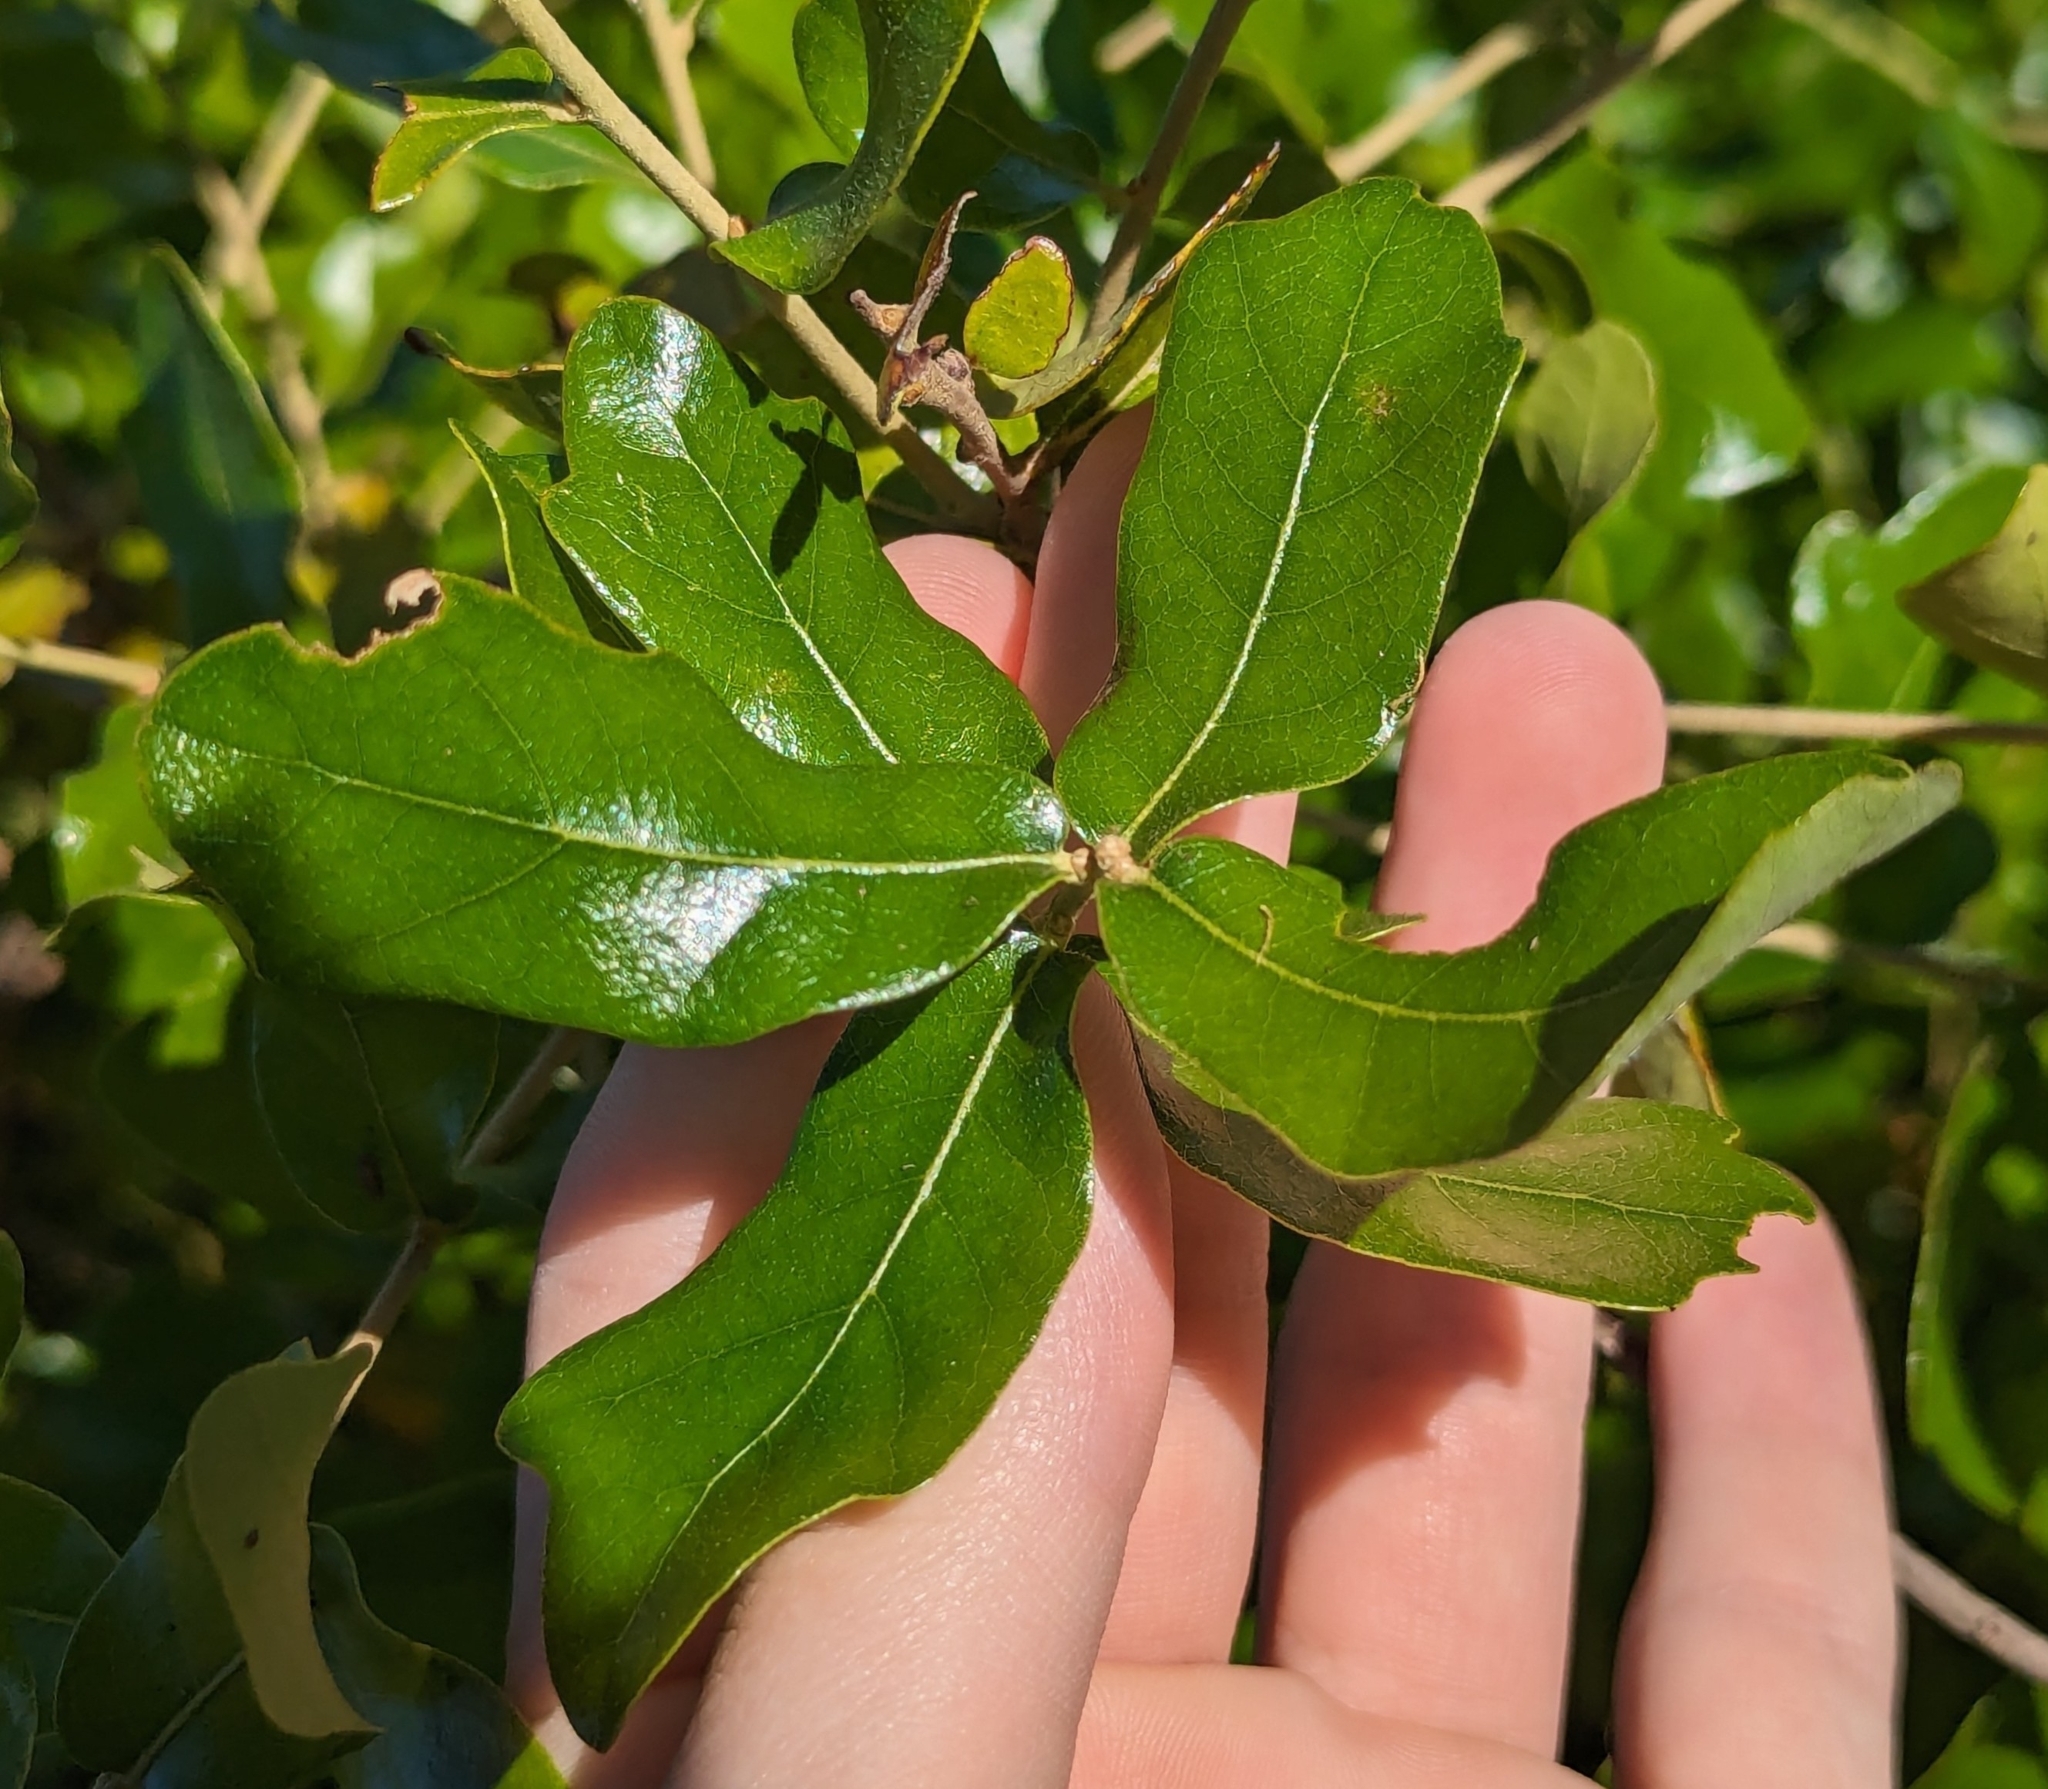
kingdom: Plantae
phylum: Tracheophyta
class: Magnoliopsida
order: Fagales
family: Fagaceae
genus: Quercus
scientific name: Quercus chapmanii
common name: Chapman oak
